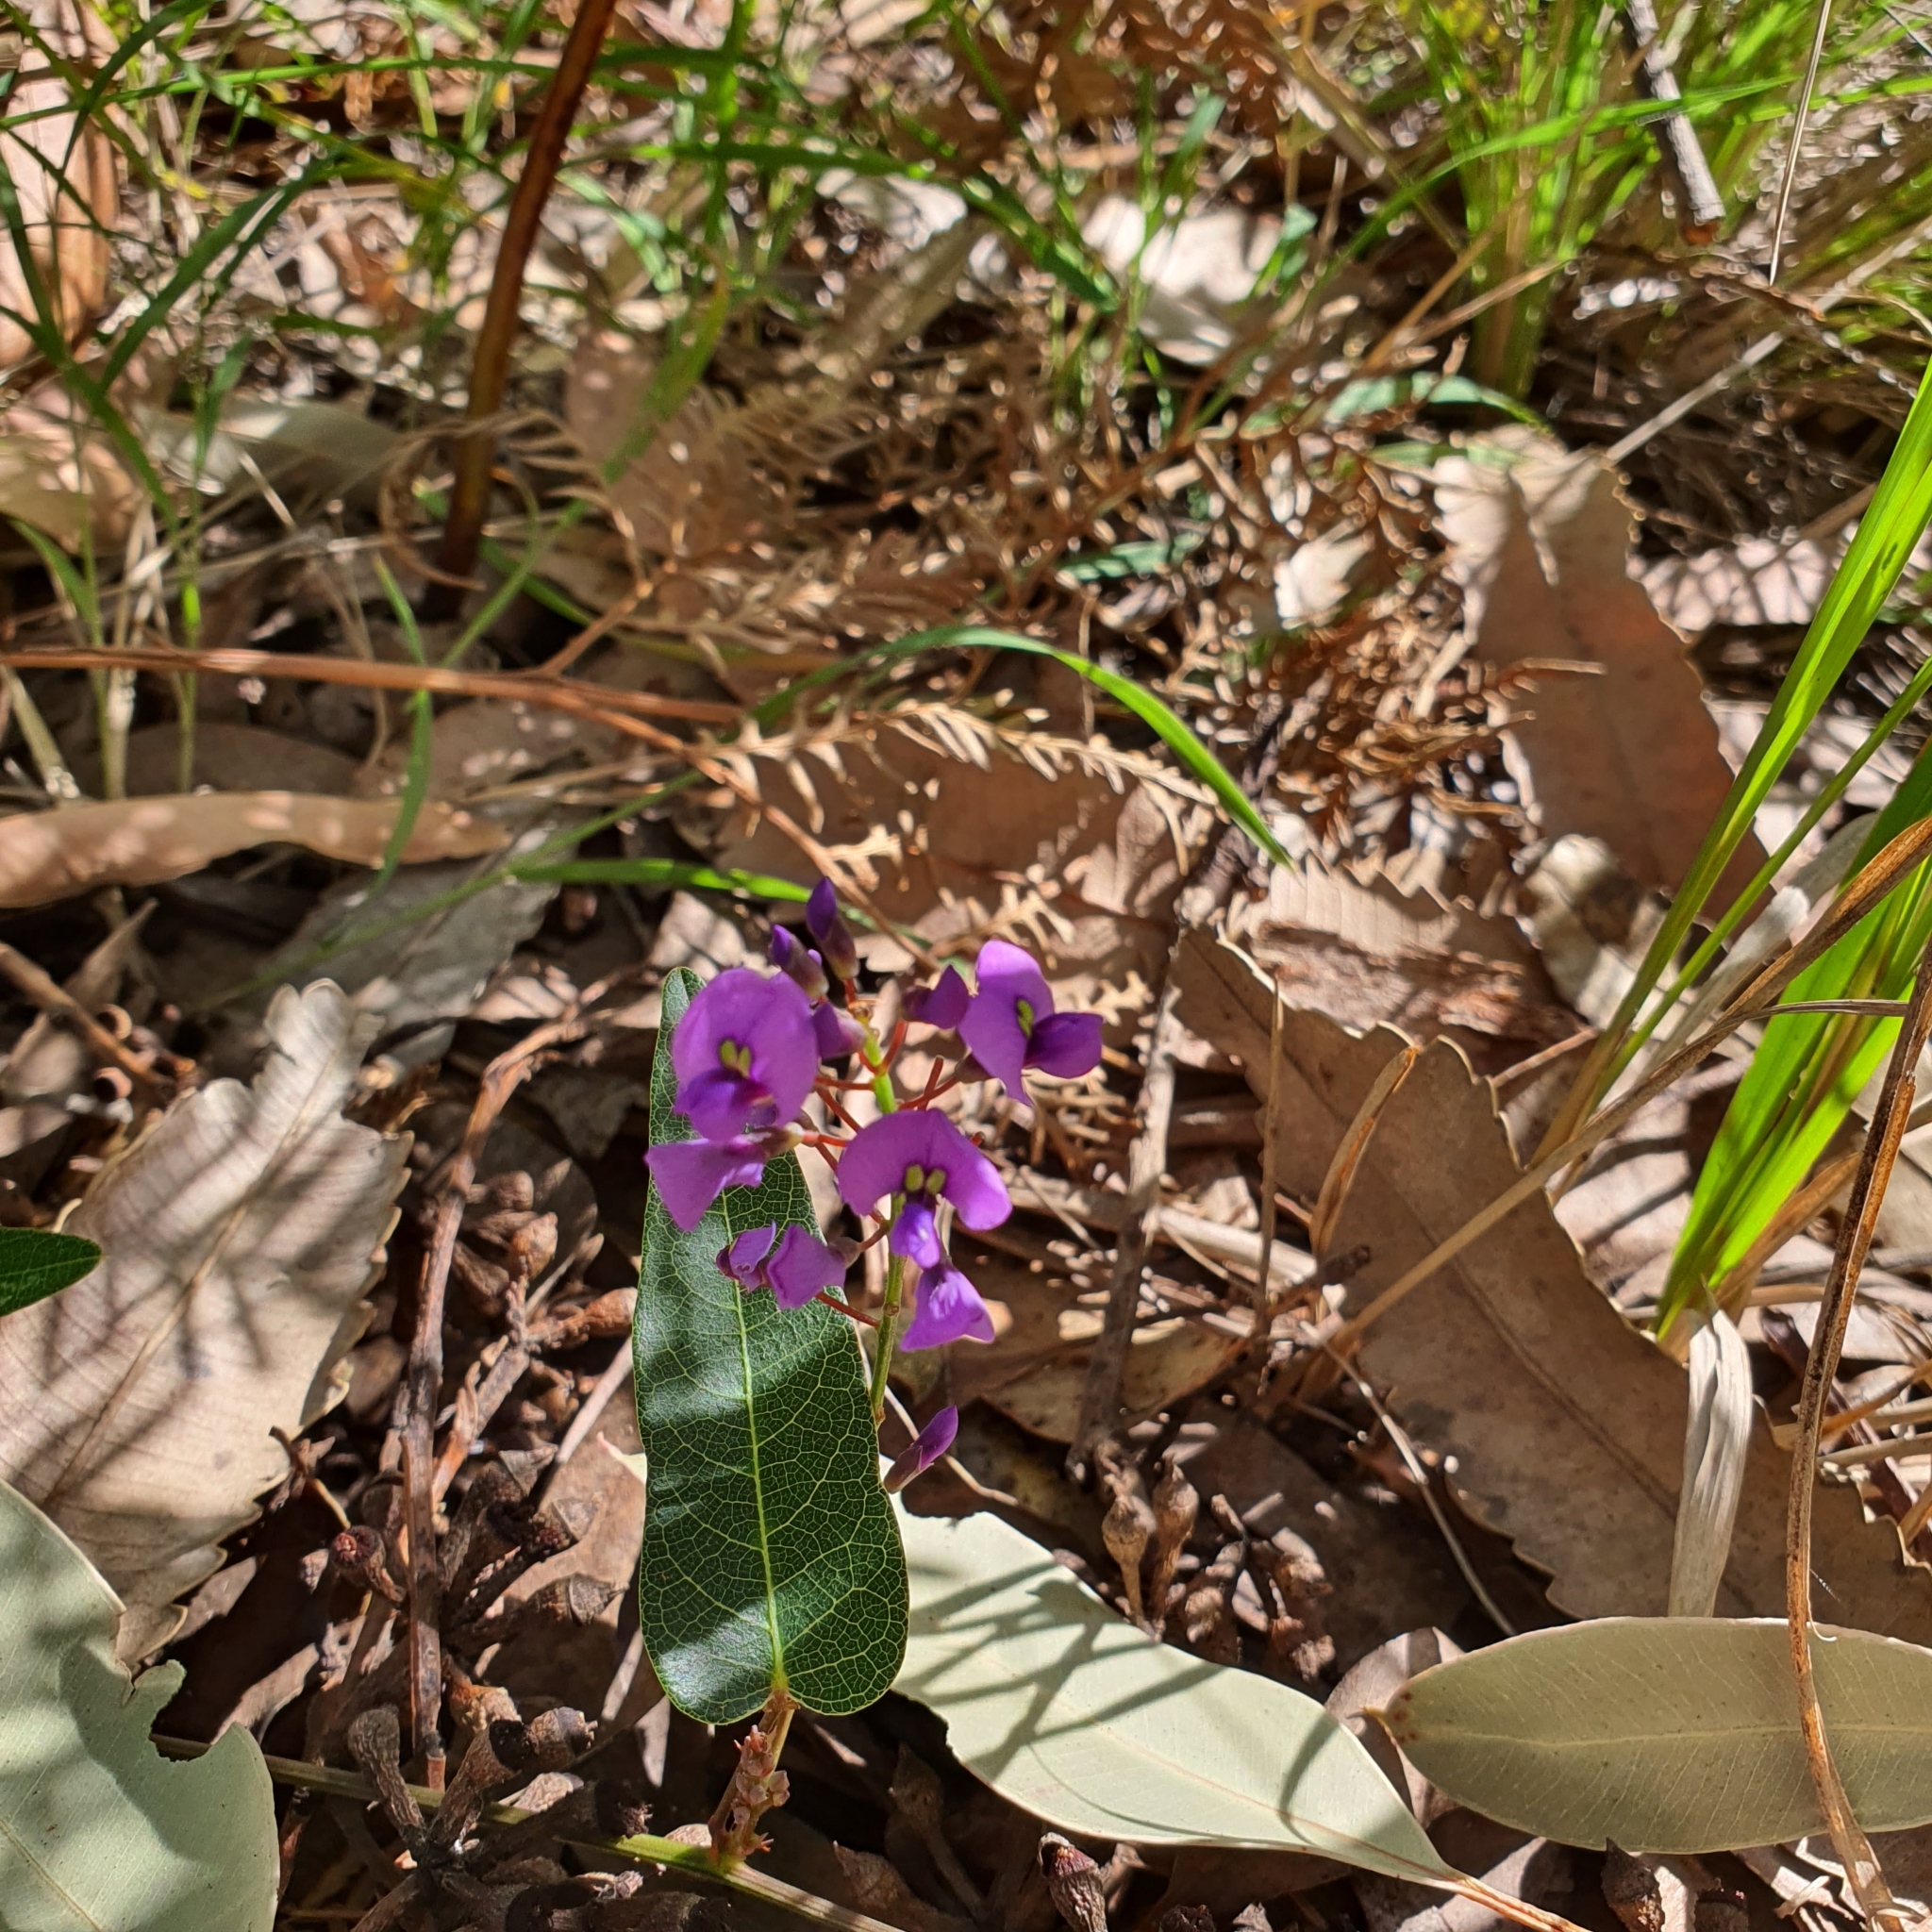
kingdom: Plantae
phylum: Tracheophyta
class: Magnoliopsida
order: Fabales
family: Fabaceae
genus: Hardenbergia
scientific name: Hardenbergia violacea
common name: Coral-pea
